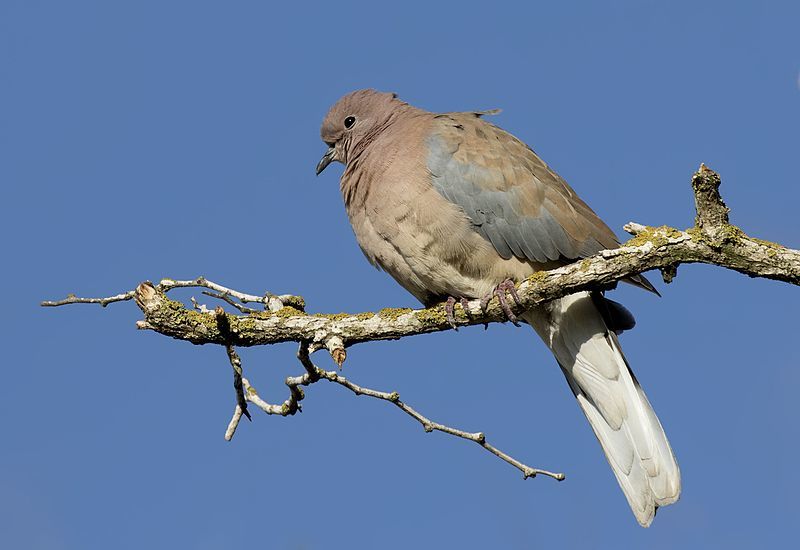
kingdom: Animalia
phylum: Chordata
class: Aves
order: Columbiformes
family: Columbidae
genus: Spilopelia
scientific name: Spilopelia senegalensis
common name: Laughing dove
